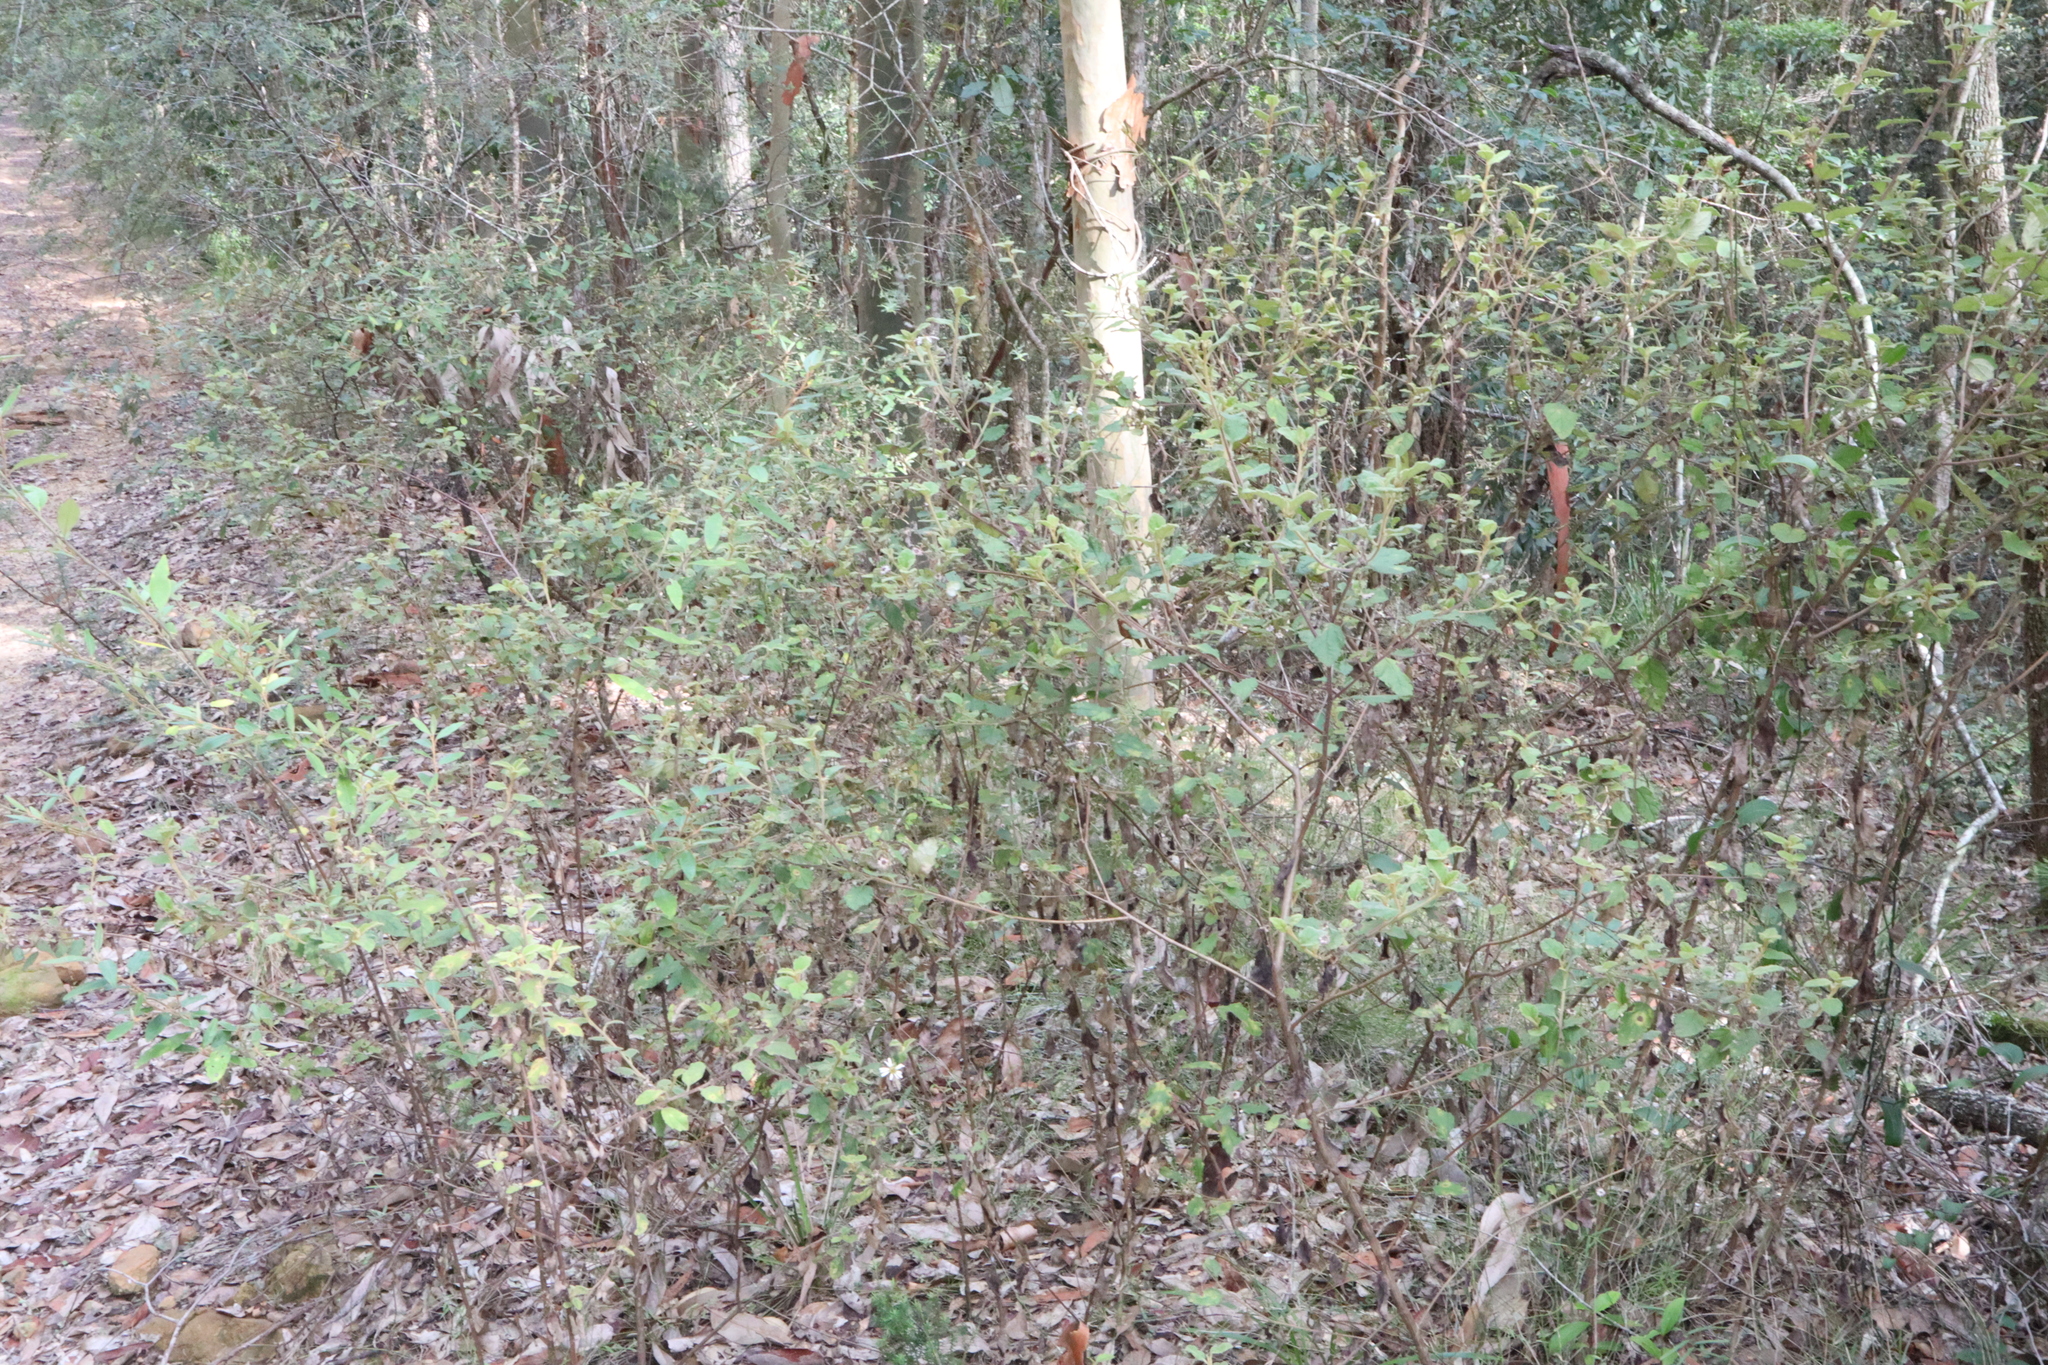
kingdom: Plantae
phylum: Tracheophyta
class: Magnoliopsida
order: Asterales
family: Asteraceae
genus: Olearia
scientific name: Olearia tomentosa
